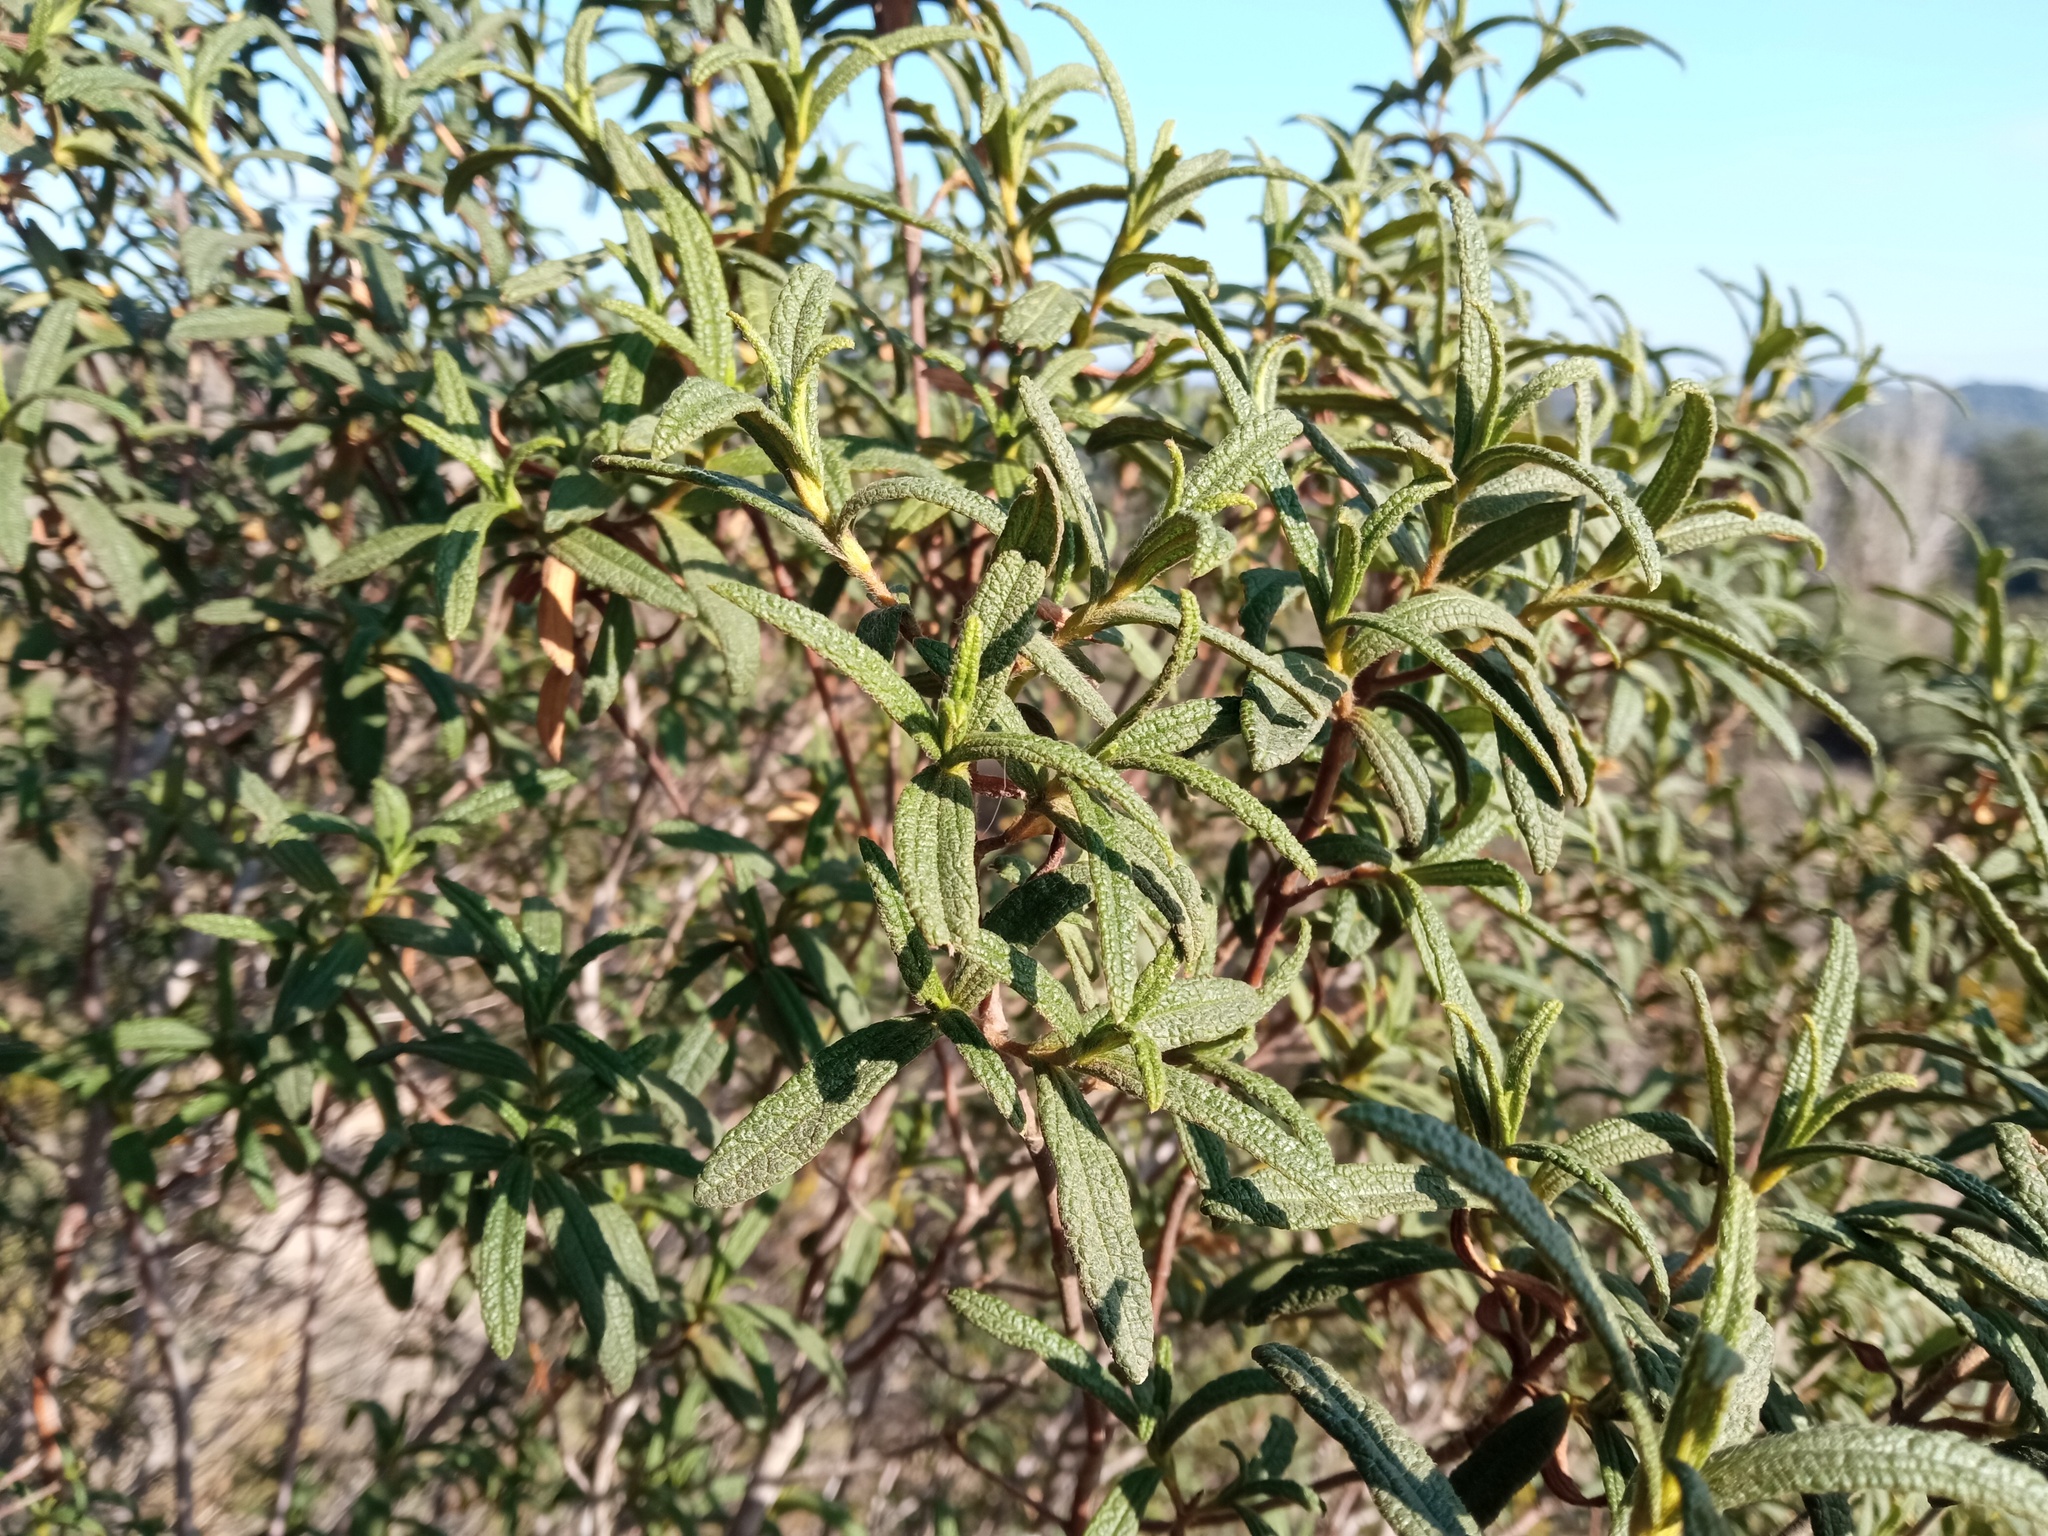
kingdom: Plantae
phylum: Tracheophyta
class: Magnoliopsida
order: Malvales
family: Cistaceae
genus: Cistus
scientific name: Cistus monspeliensis
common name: Montpelier cistus
